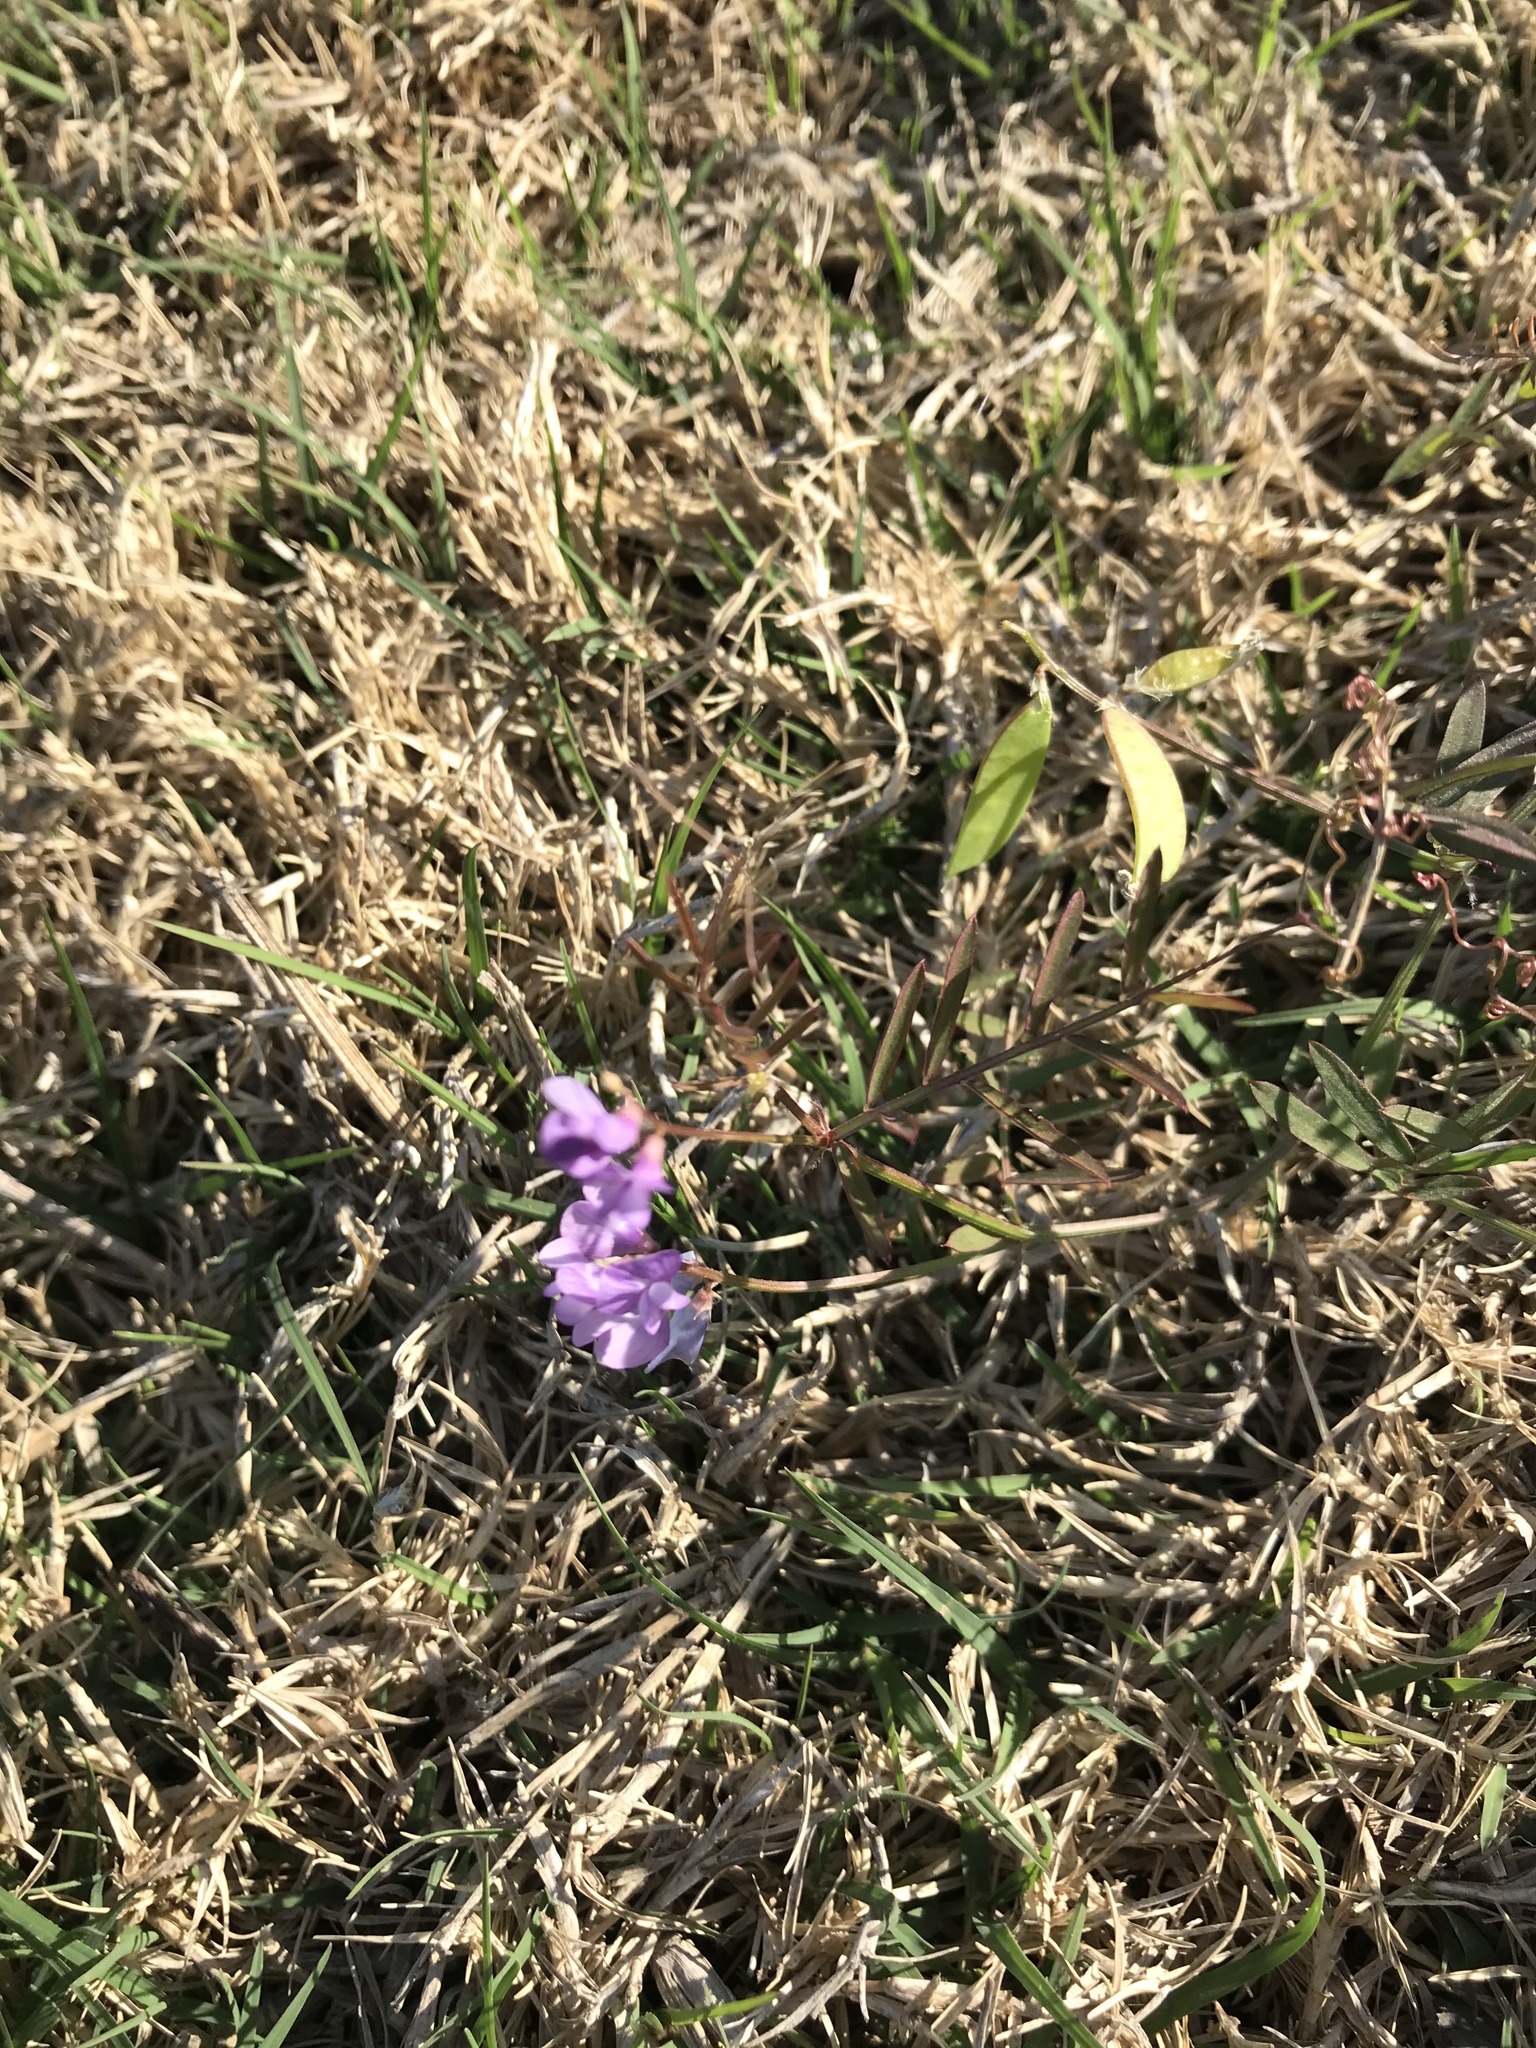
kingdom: Plantae
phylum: Tracheophyta
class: Magnoliopsida
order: Fabales
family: Fabaceae
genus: Vicia
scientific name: Vicia ludoviciana
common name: Louisiana vetch
